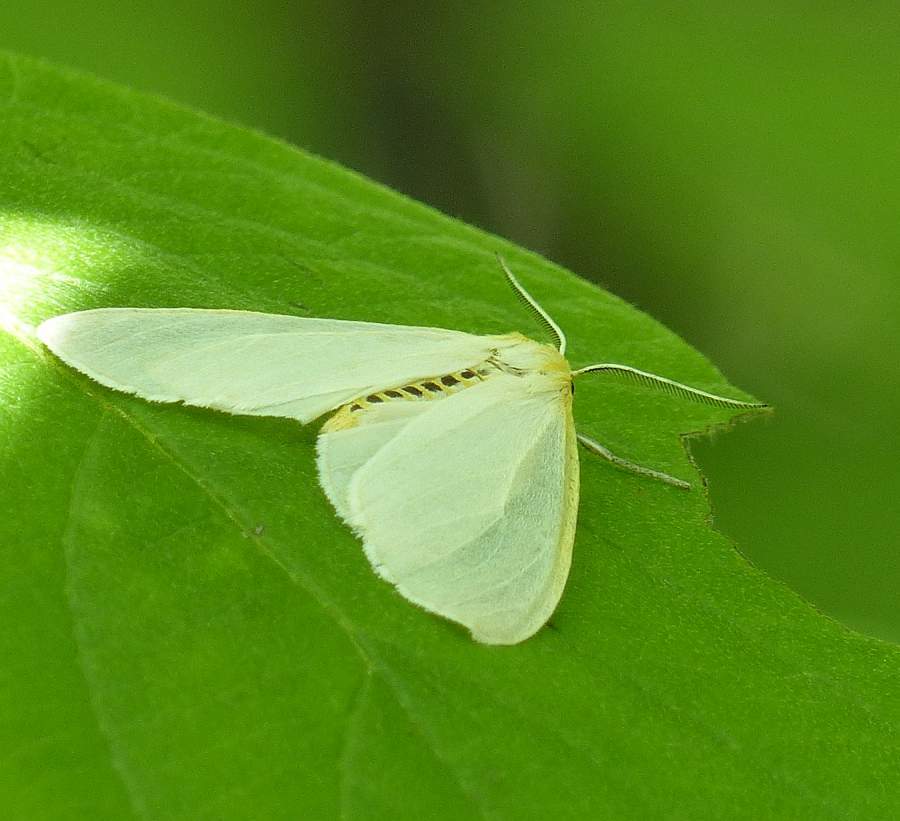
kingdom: Animalia
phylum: Arthropoda
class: Insecta
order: Lepidoptera
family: Erebidae
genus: Cycnia
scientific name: Cycnia tenera
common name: Delicate cycnia moth
